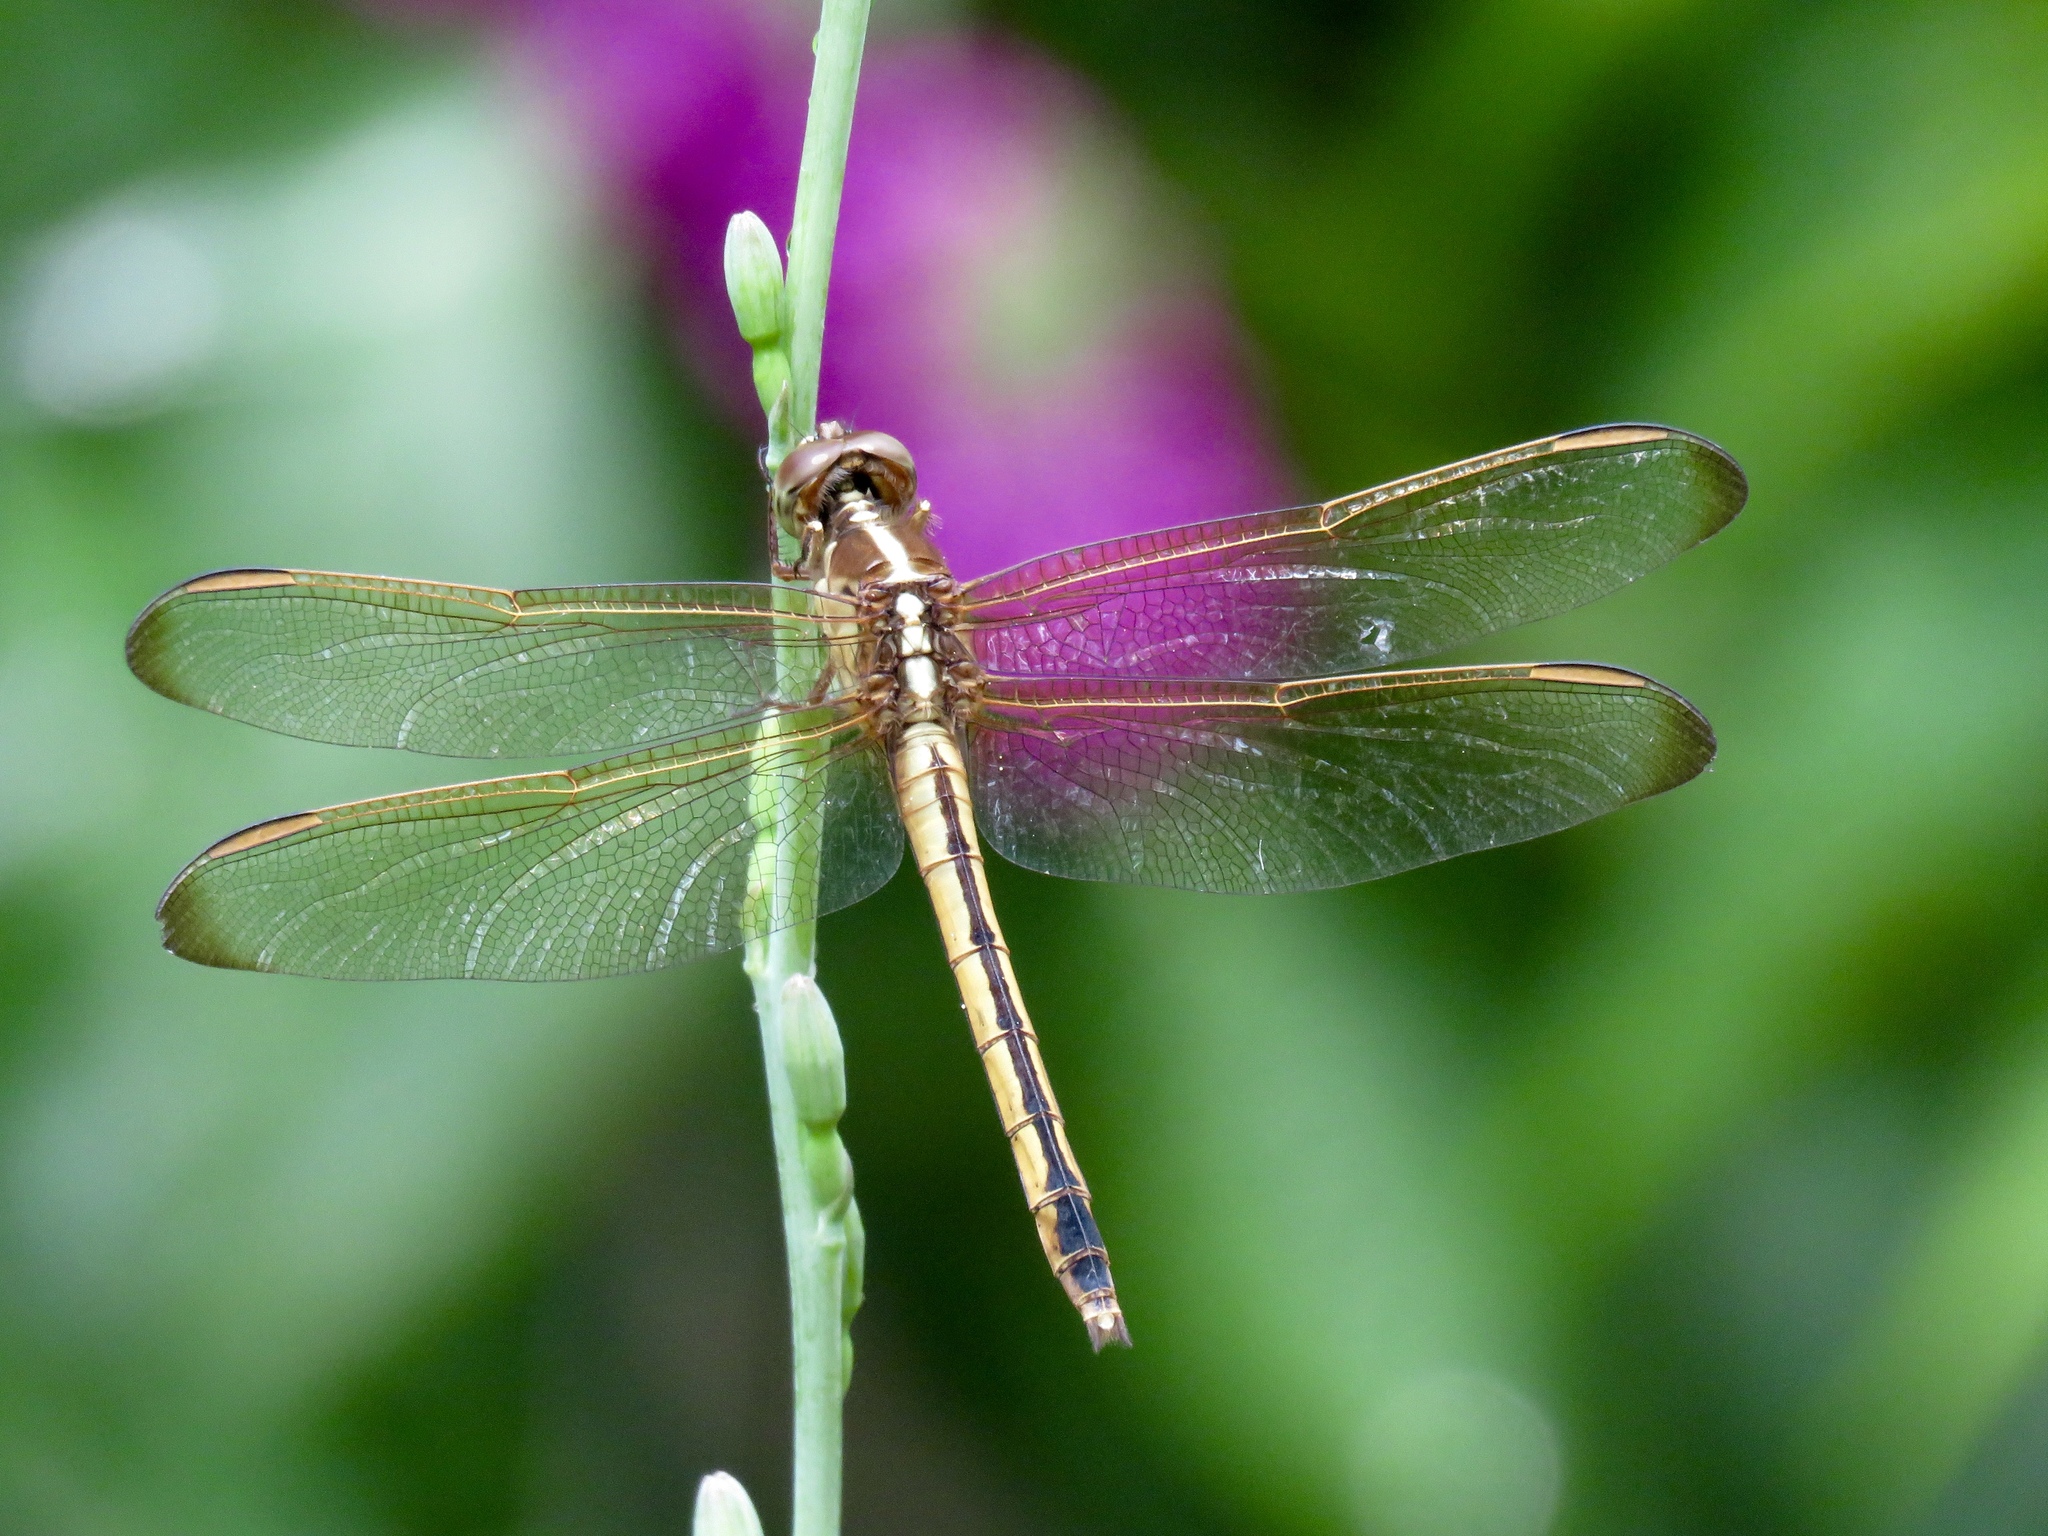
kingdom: Animalia
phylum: Arthropoda
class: Insecta
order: Odonata
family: Libellulidae
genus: Libellula
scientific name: Libellula needhami
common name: Needham's skimmer
